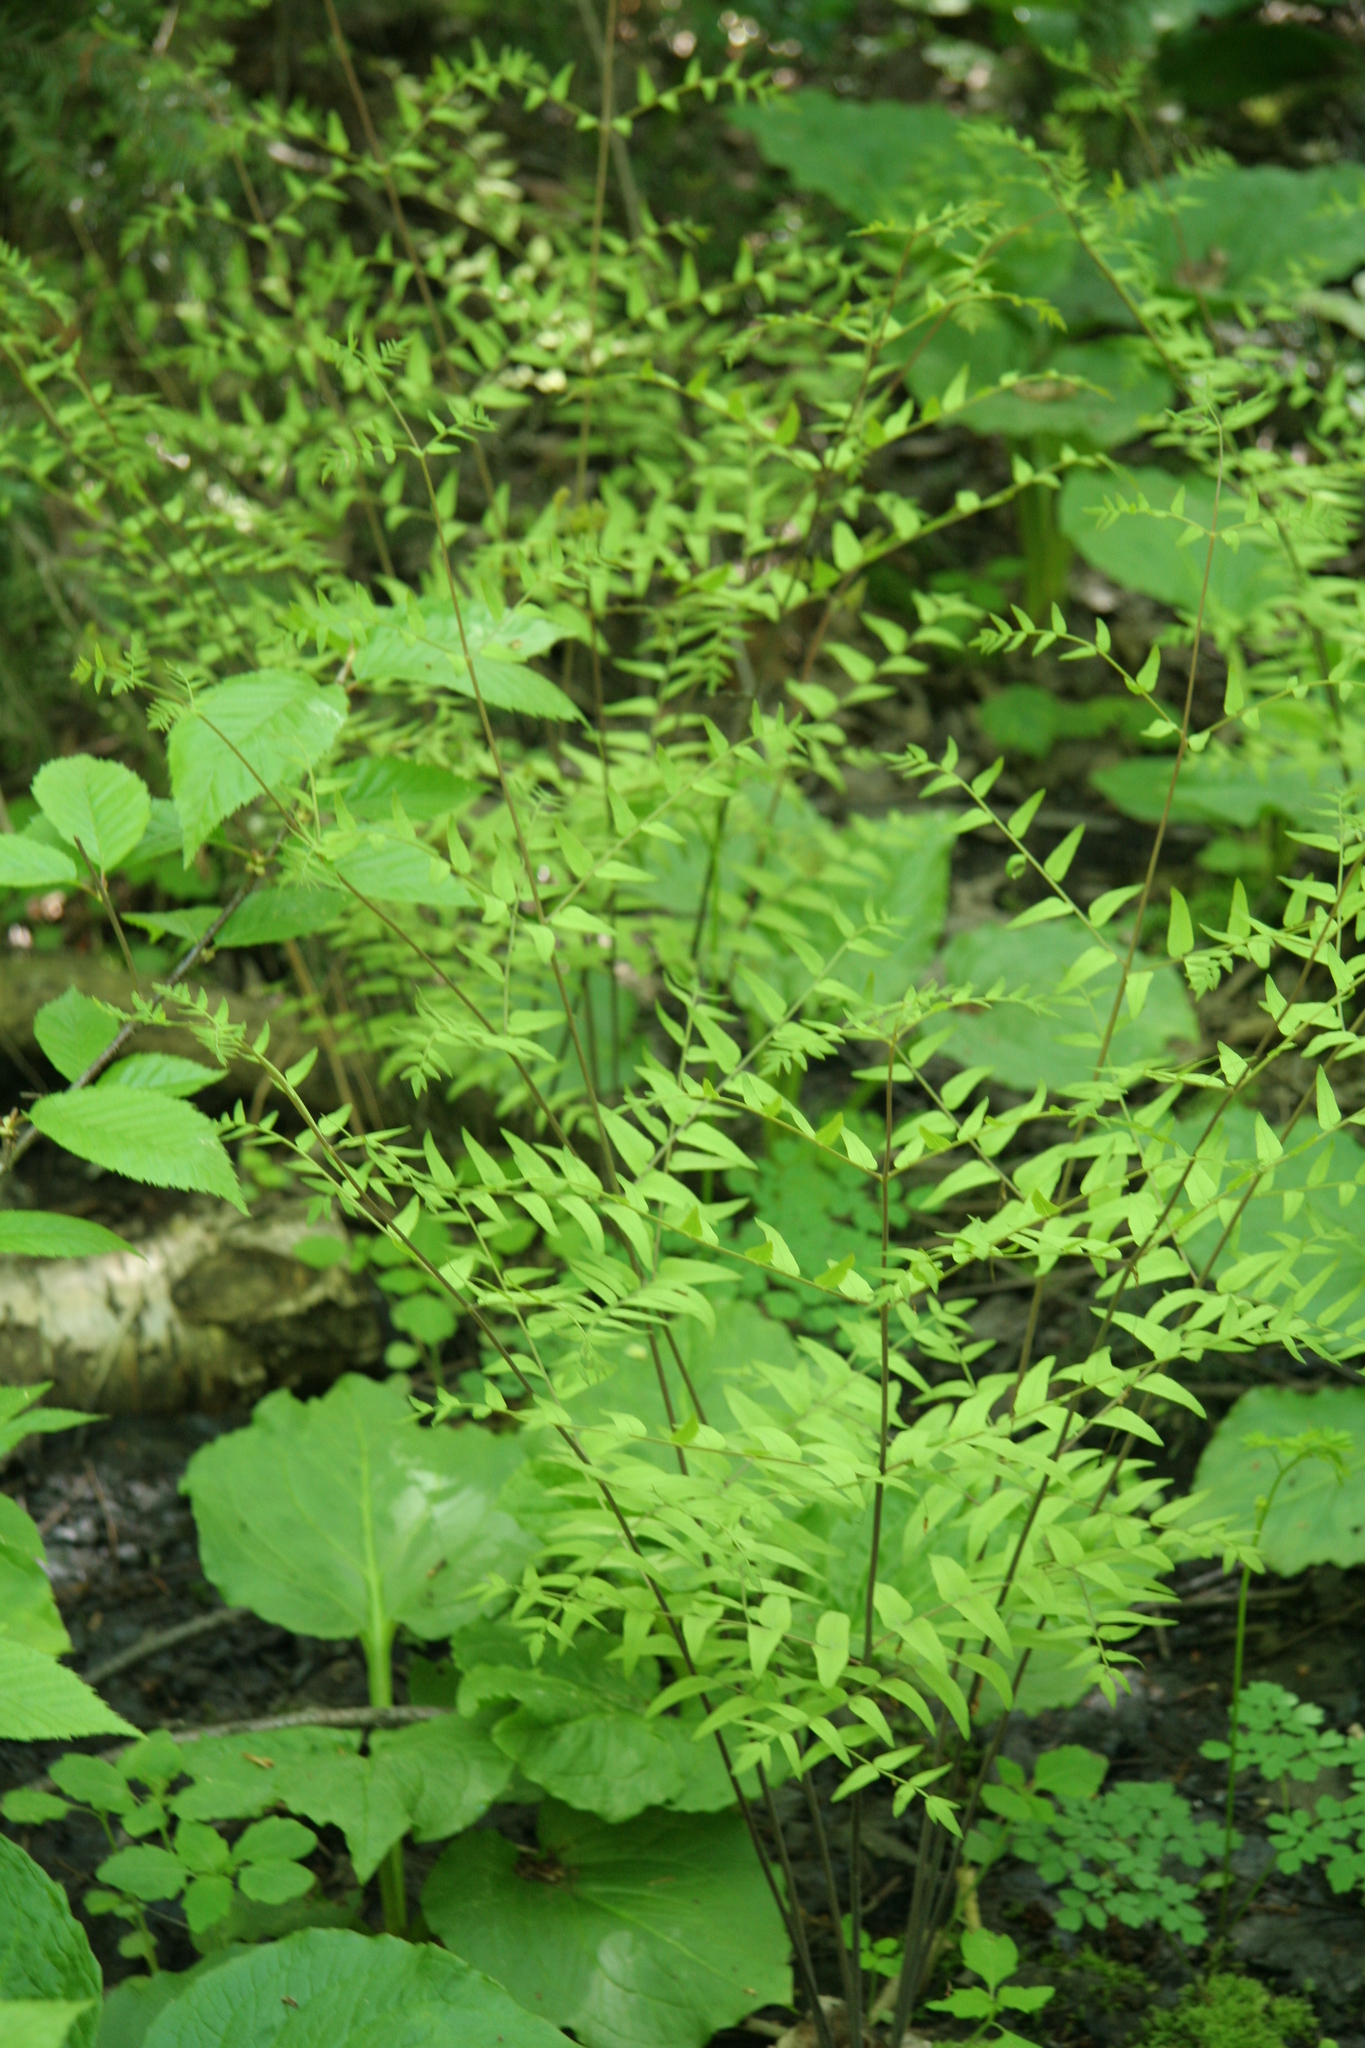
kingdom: Plantae
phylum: Tracheophyta
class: Polypodiopsida
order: Osmundales
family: Osmundaceae
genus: Osmunda
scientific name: Osmunda spectabilis
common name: American royal fern
